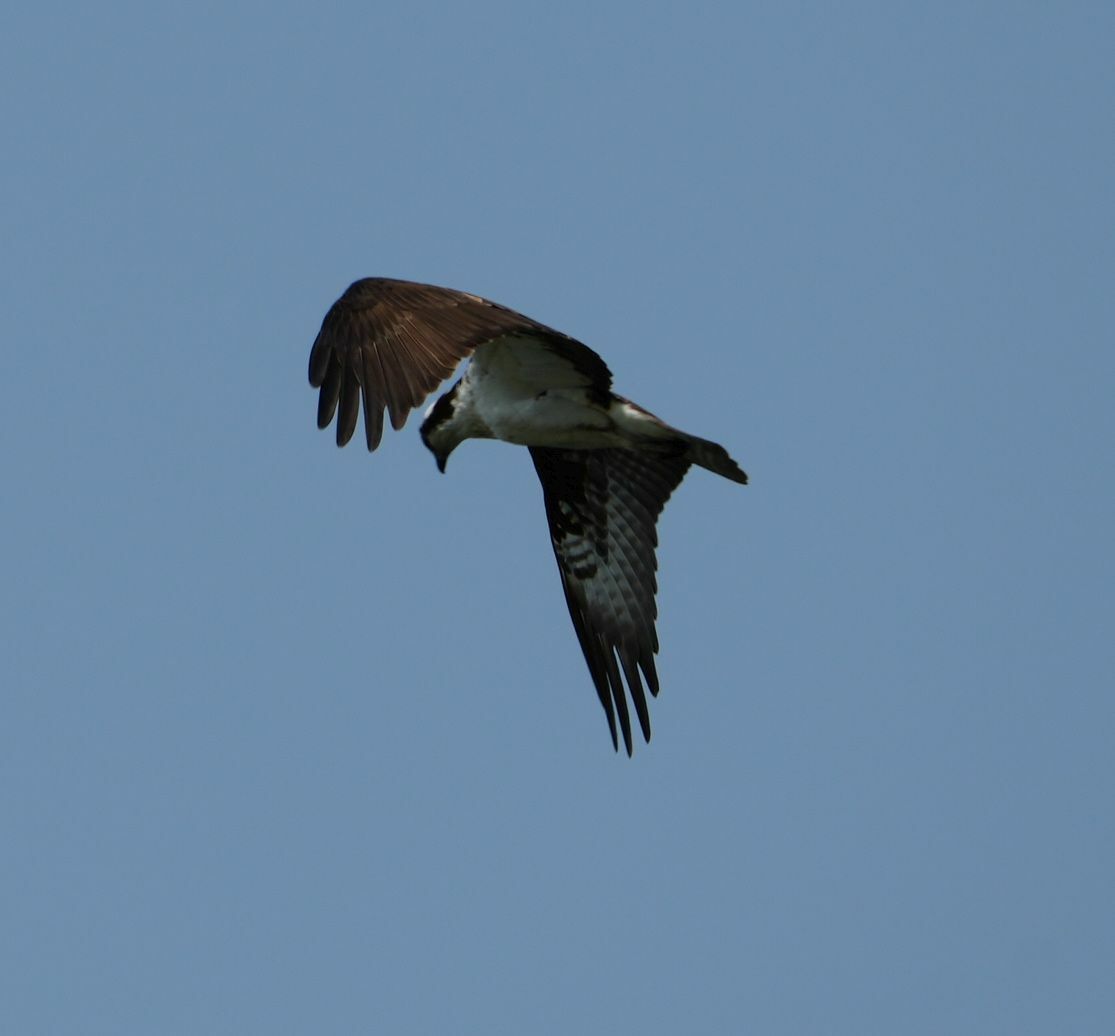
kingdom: Animalia
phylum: Chordata
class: Aves
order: Accipitriformes
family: Pandionidae
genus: Pandion
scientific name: Pandion haliaetus
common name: Osprey
